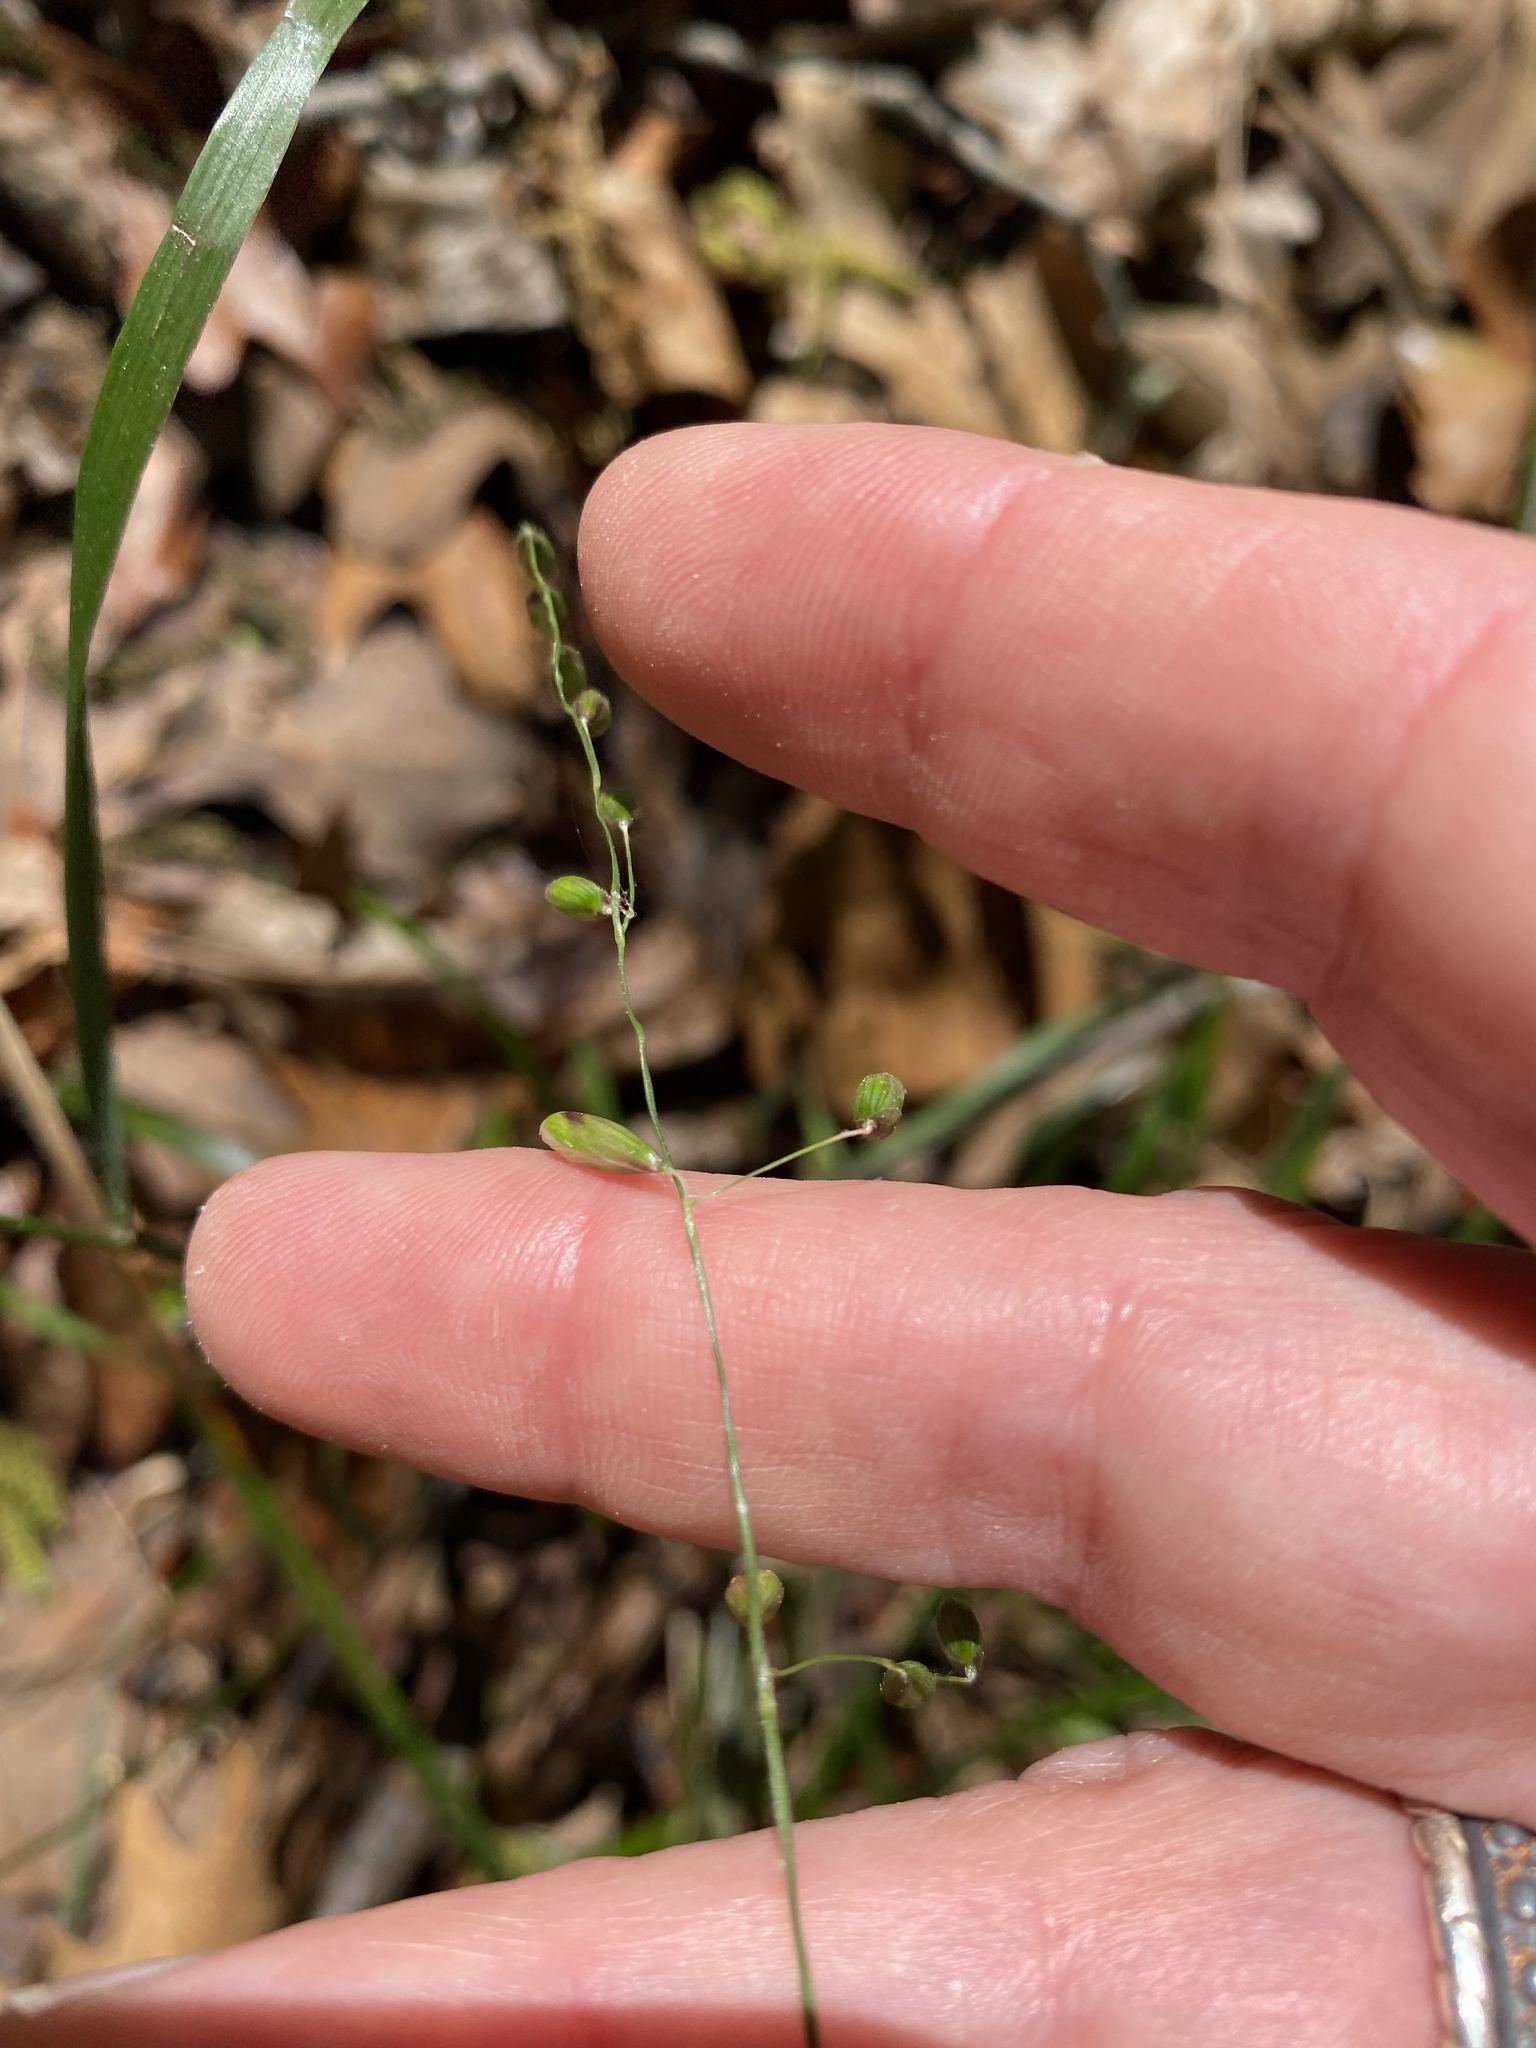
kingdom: Plantae
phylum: Tracheophyta
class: Liliopsida
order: Poales
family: Poaceae
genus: Melica
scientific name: Melica mutica
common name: Two-flower melic
